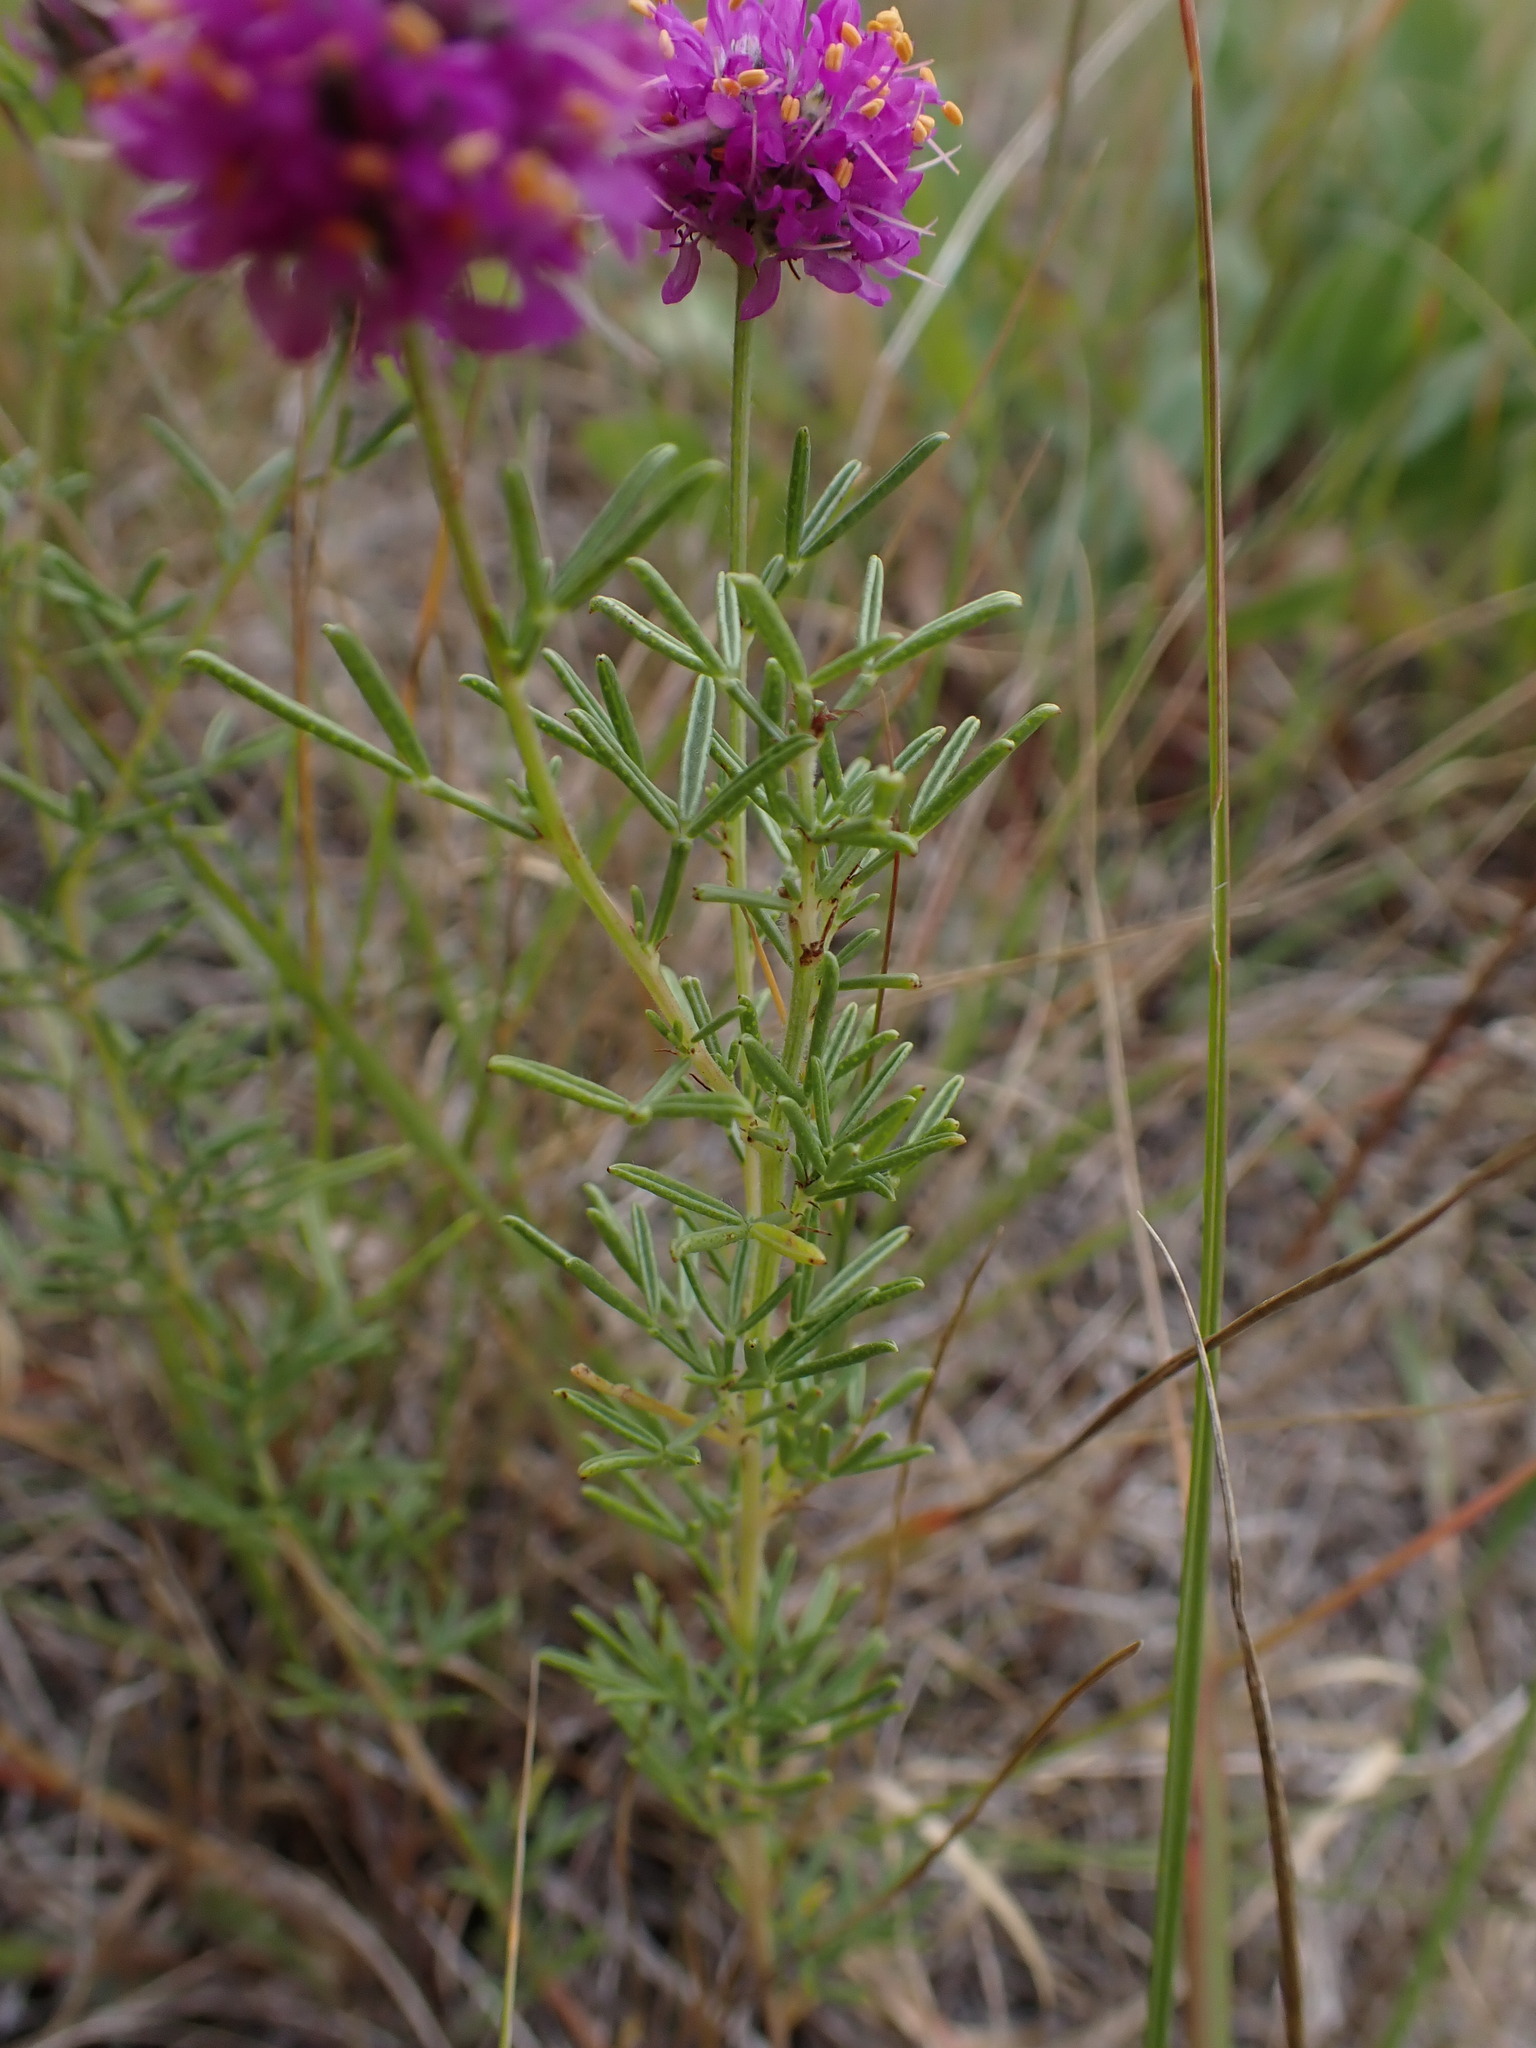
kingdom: Plantae
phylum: Tracheophyta
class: Magnoliopsida
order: Fabales
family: Fabaceae
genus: Dalea
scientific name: Dalea purpurea
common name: Purple prairie-clover
